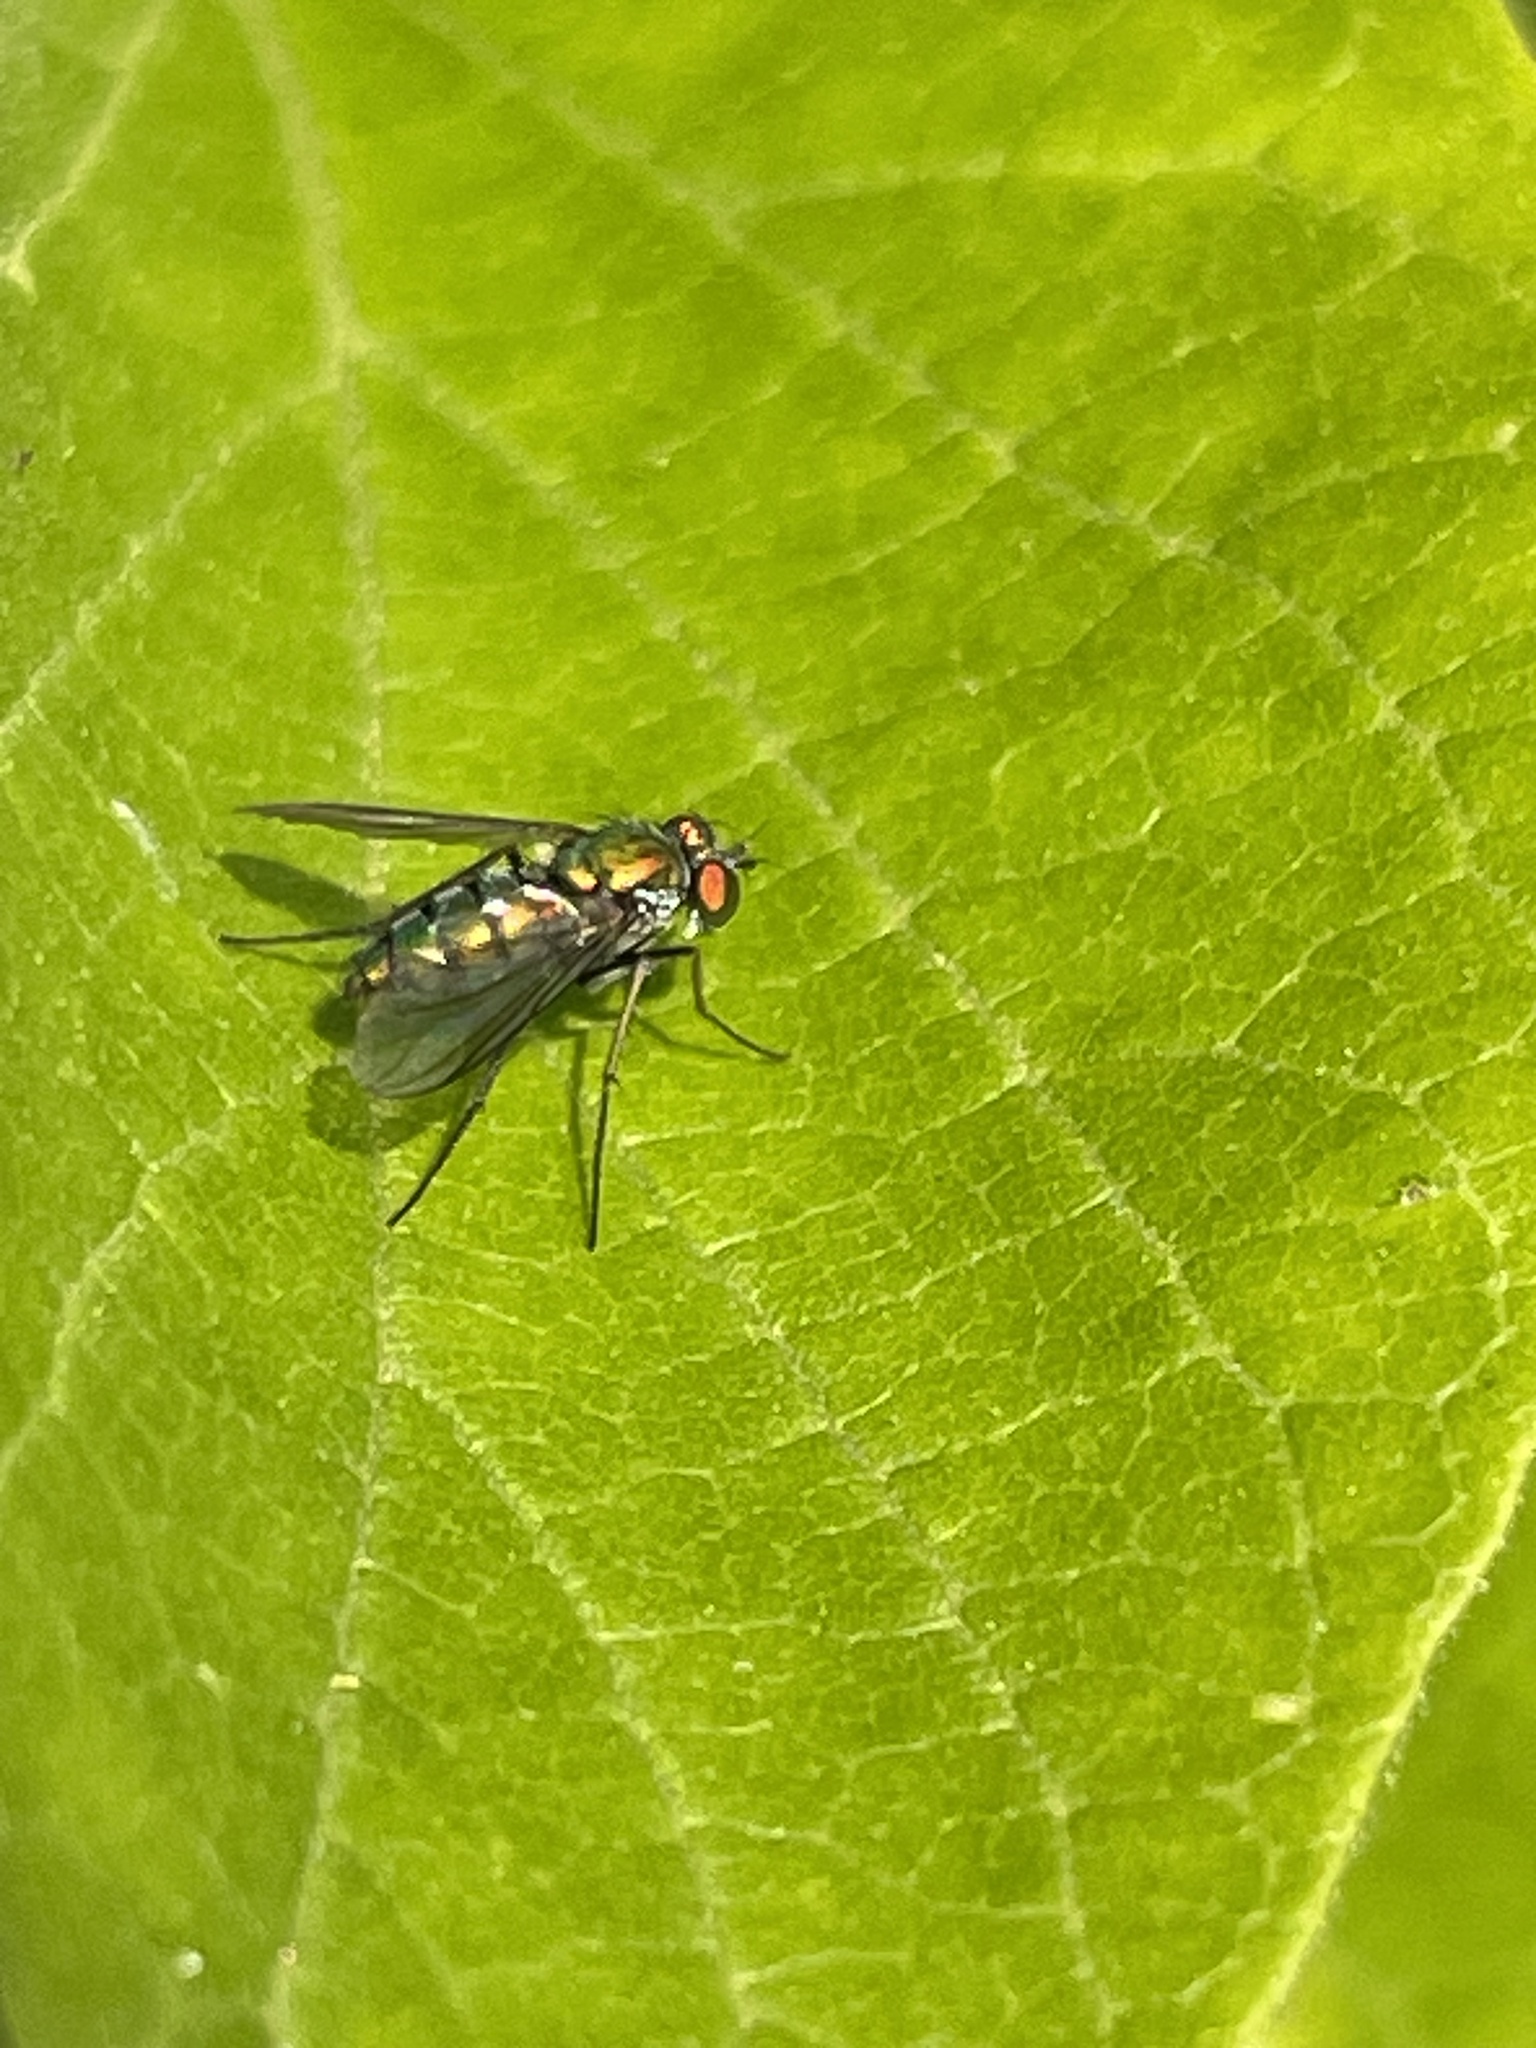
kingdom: Animalia
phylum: Arthropoda
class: Insecta
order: Diptera
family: Dolichopodidae
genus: Condylostylus
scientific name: Condylostylus longicornis
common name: Long-legged fly
